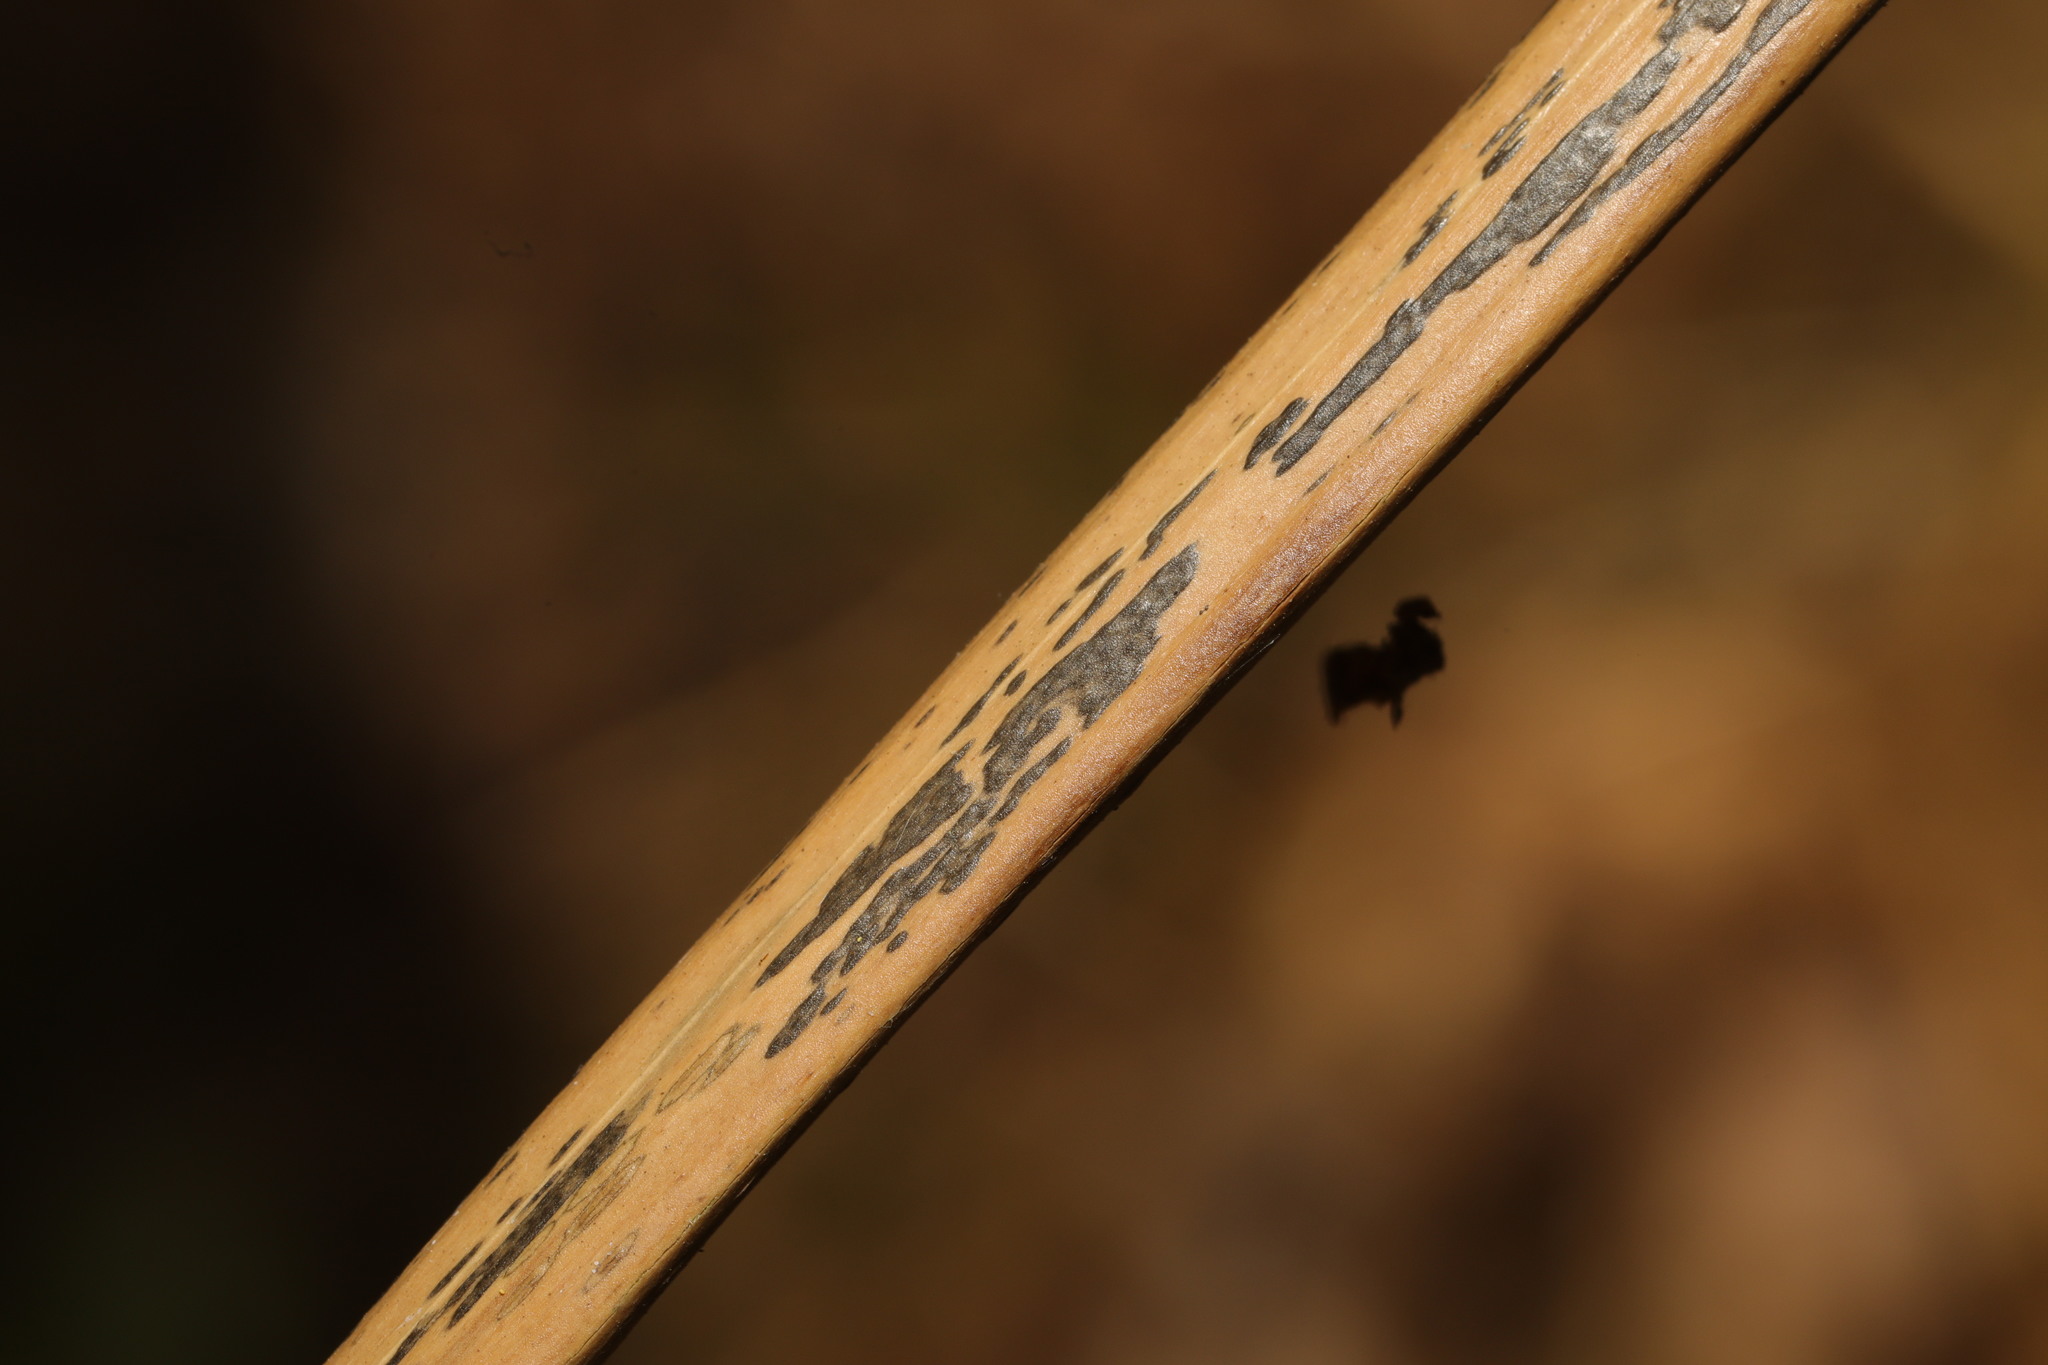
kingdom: Fungi
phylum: Ascomycota
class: Dothideomycetes
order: Pleosporales
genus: Rhopographus
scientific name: Rhopographus filicinus
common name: Bracken map
